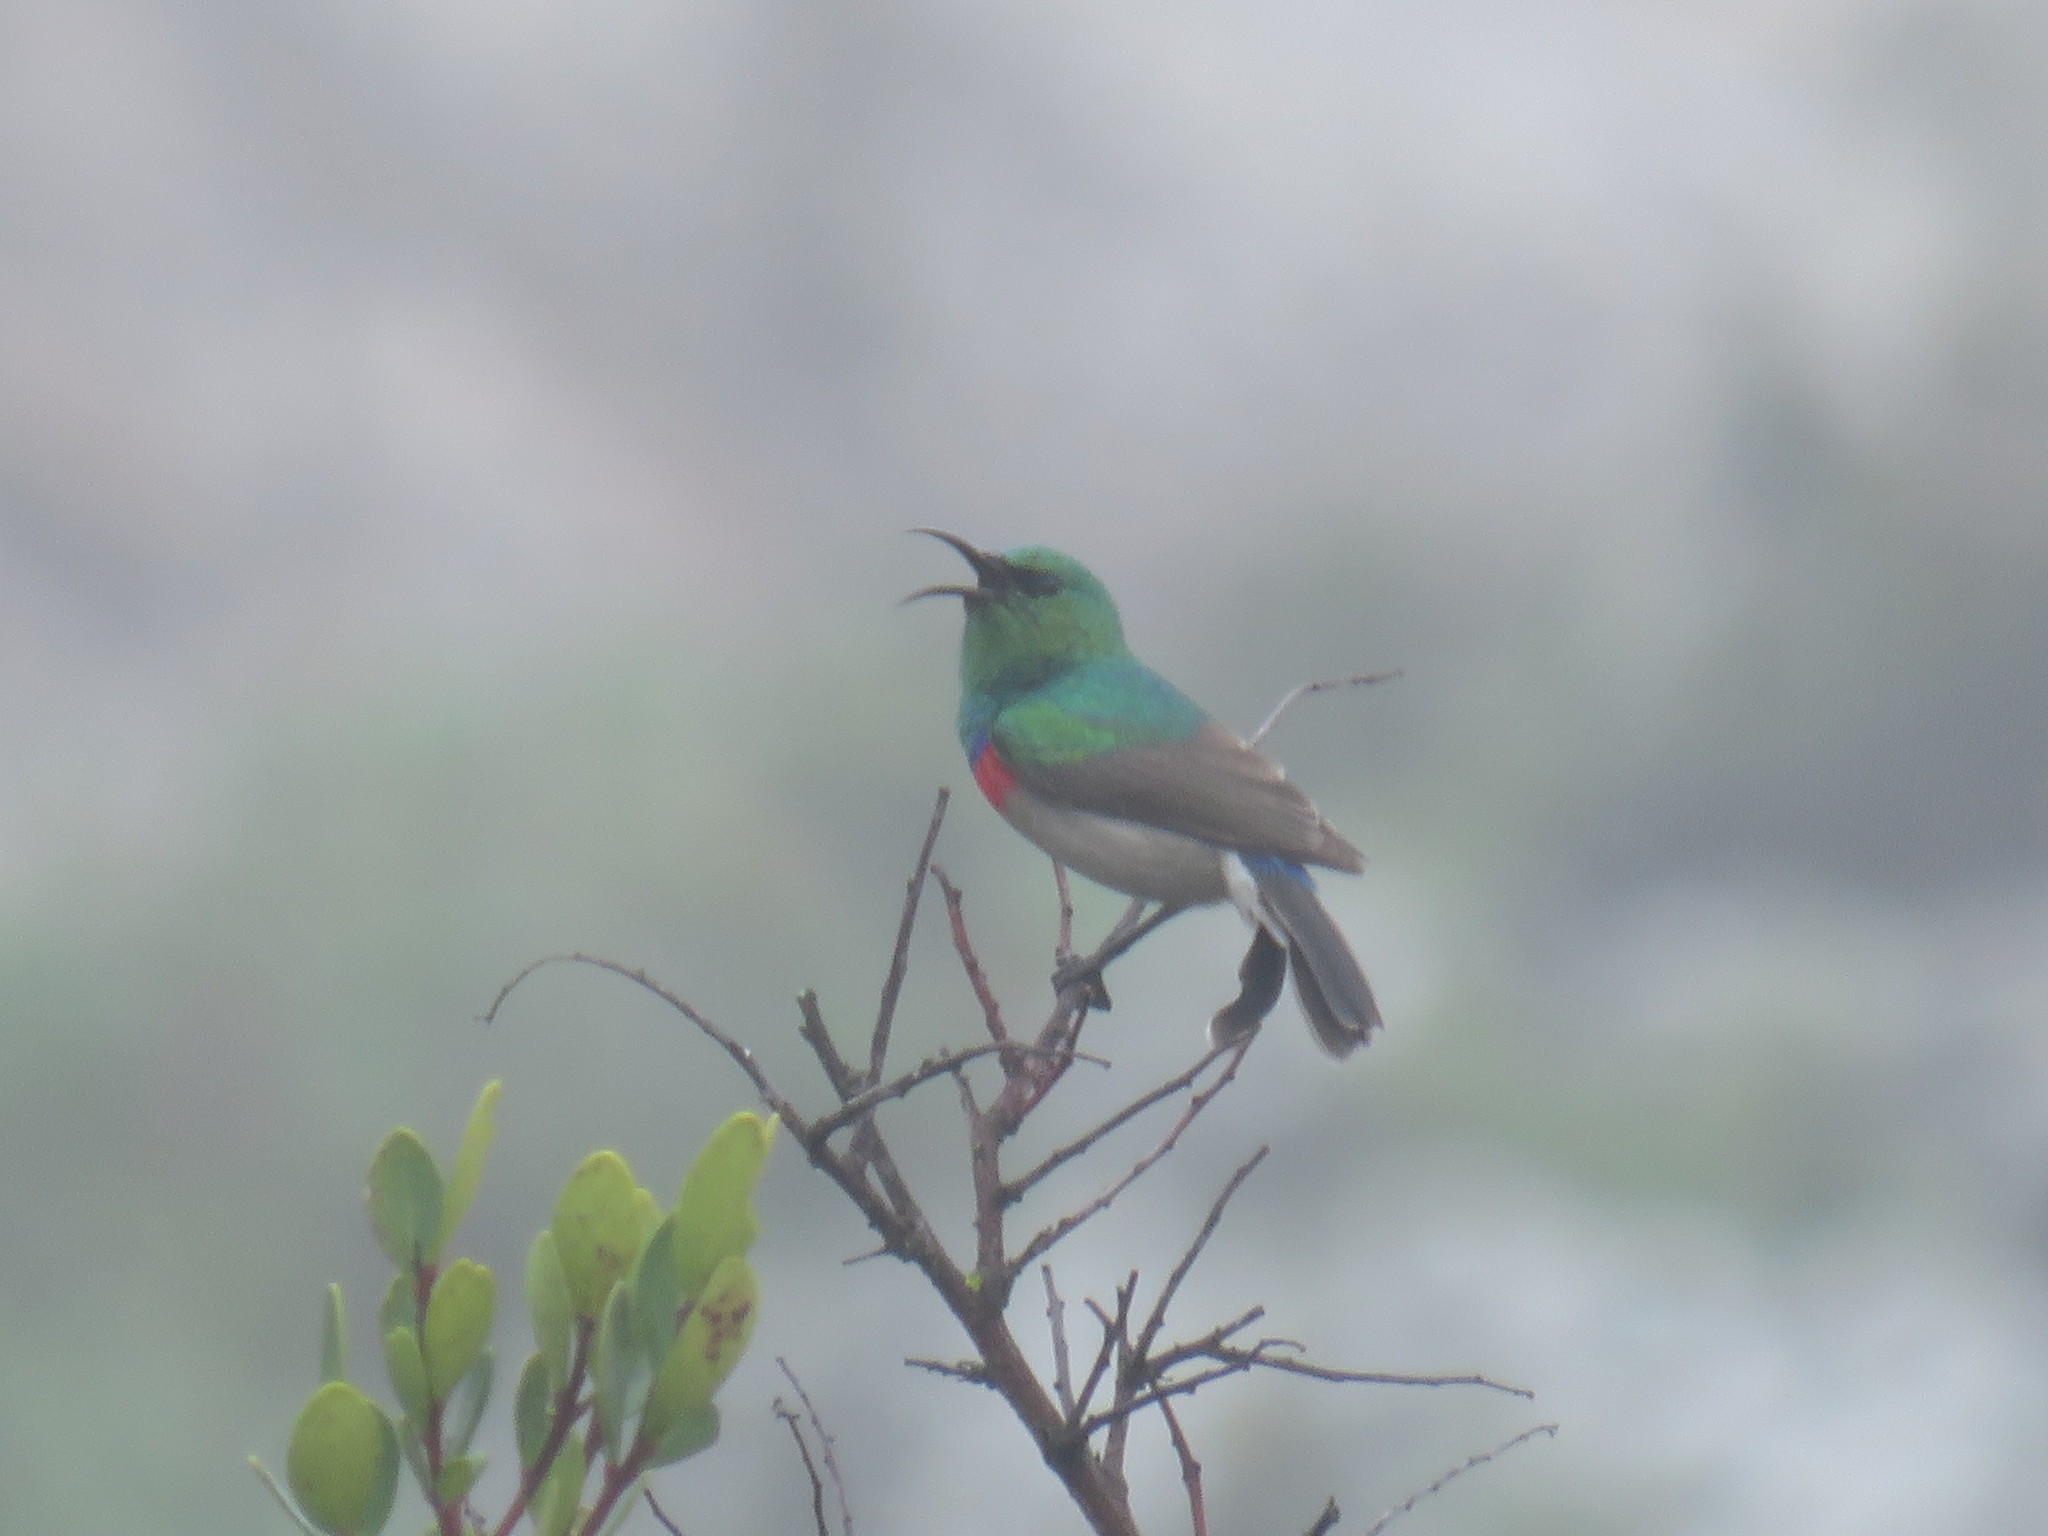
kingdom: Animalia
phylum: Chordata
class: Aves
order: Passeriformes
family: Nectariniidae
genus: Cinnyris
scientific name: Cinnyris chalybeus
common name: Southern double-collared sunbird
